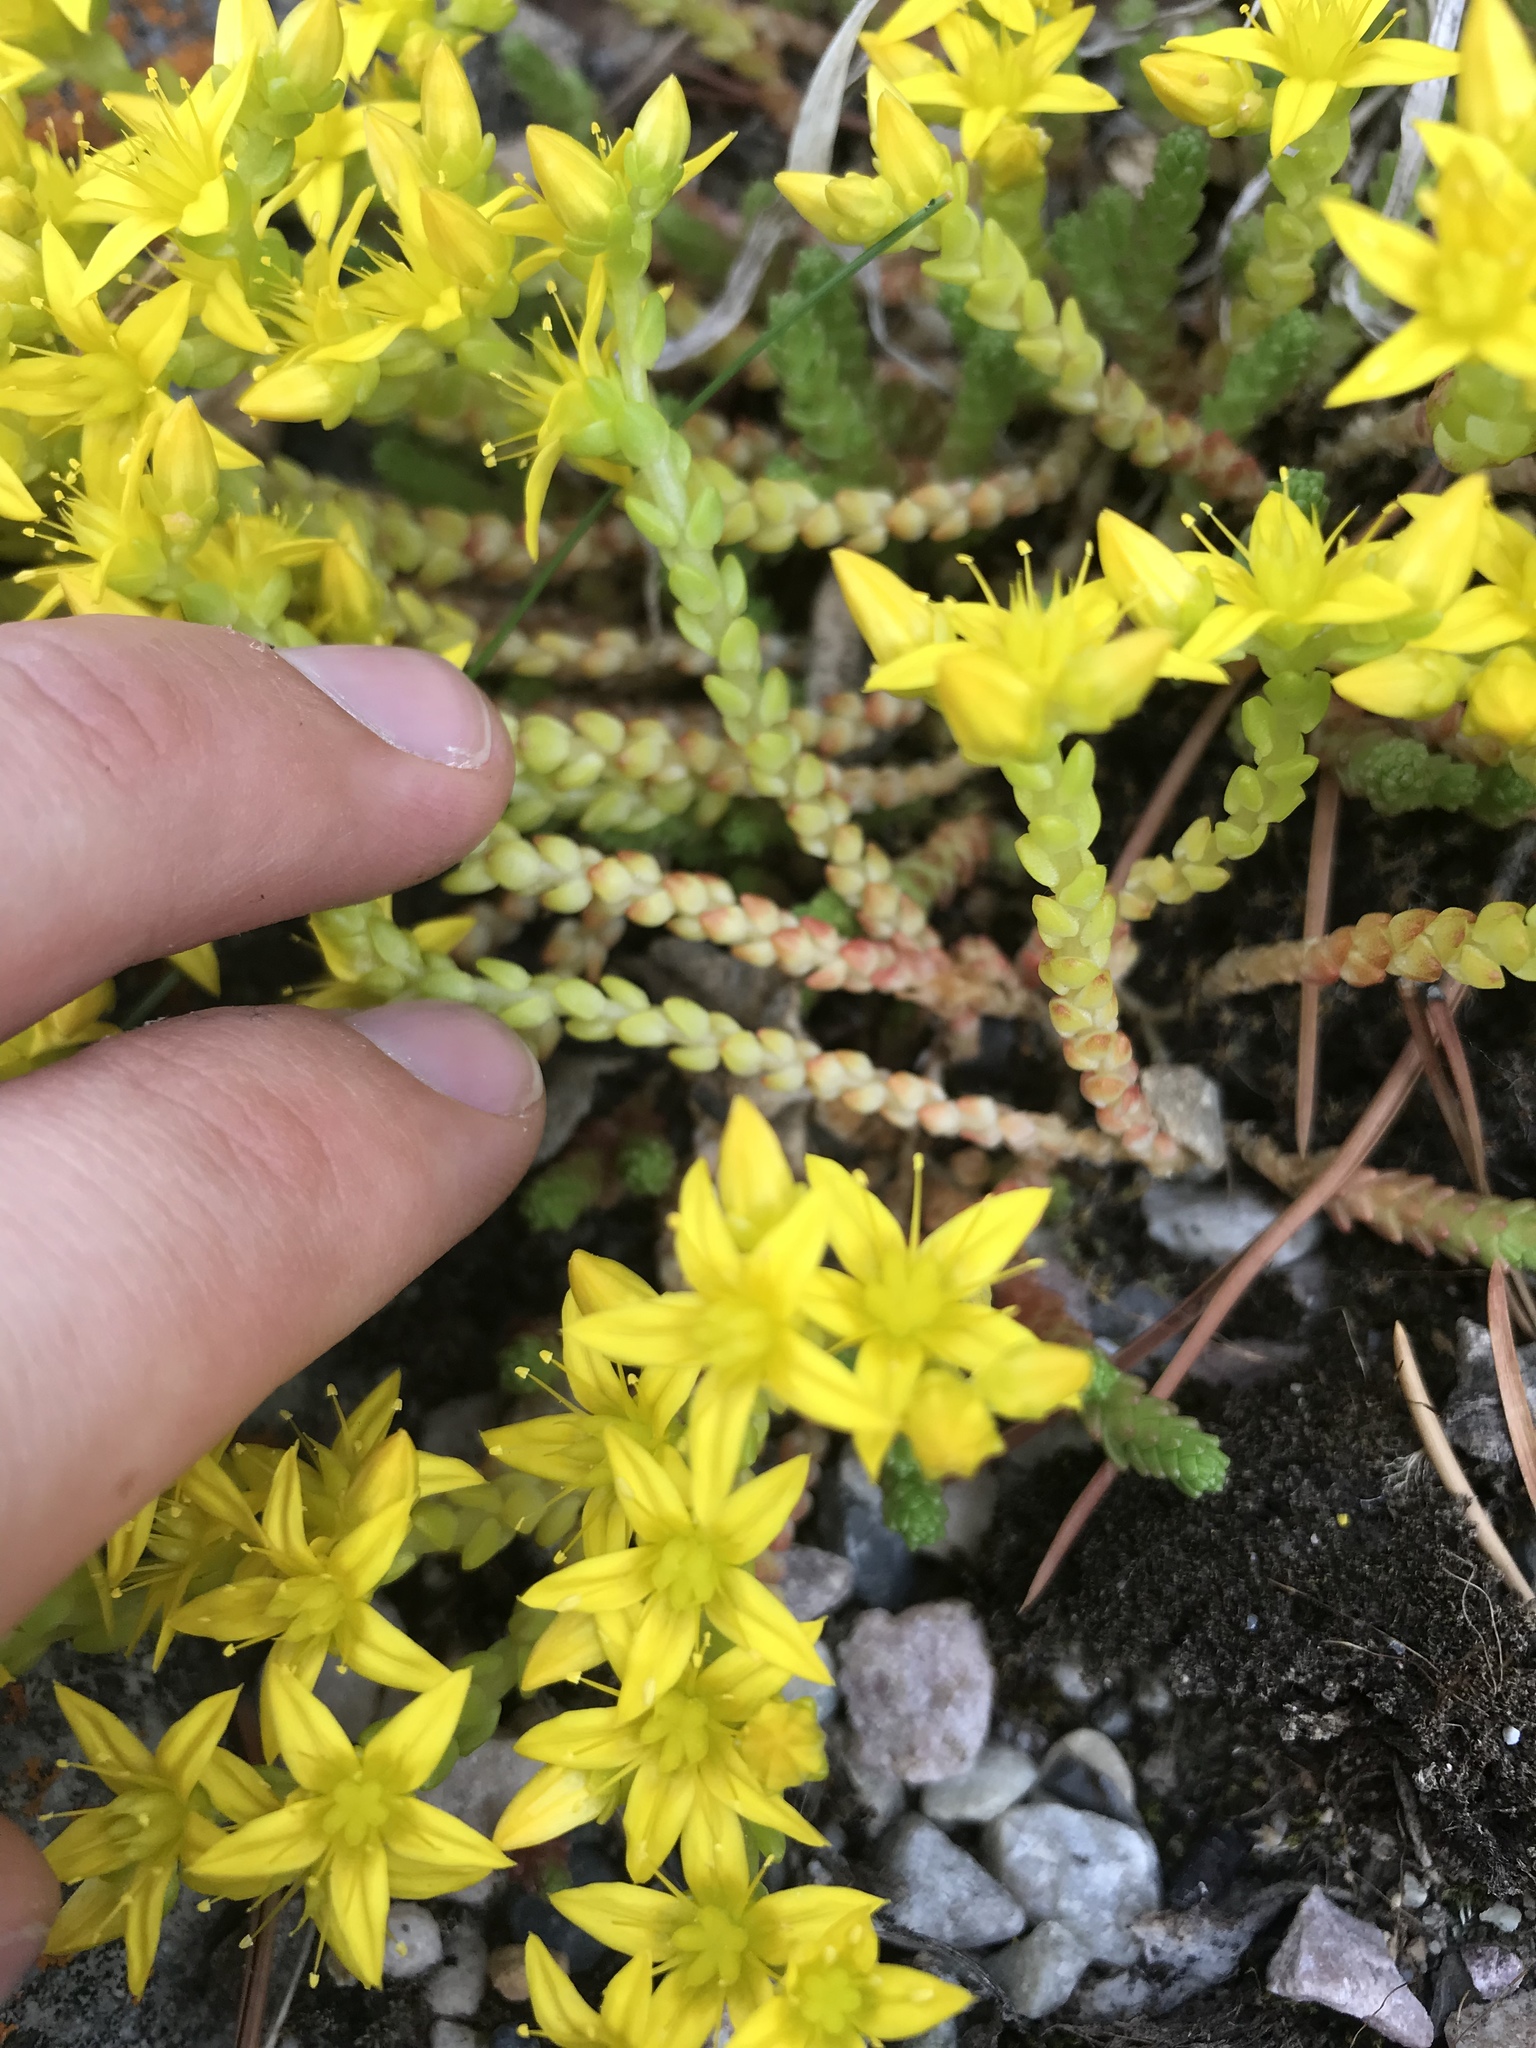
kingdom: Plantae
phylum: Tracheophyta
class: Magnoliopsida
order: Saxifragales
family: Crassulaceae
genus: Sedum
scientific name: Sedum lanceolatum
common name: Common stonecrop
